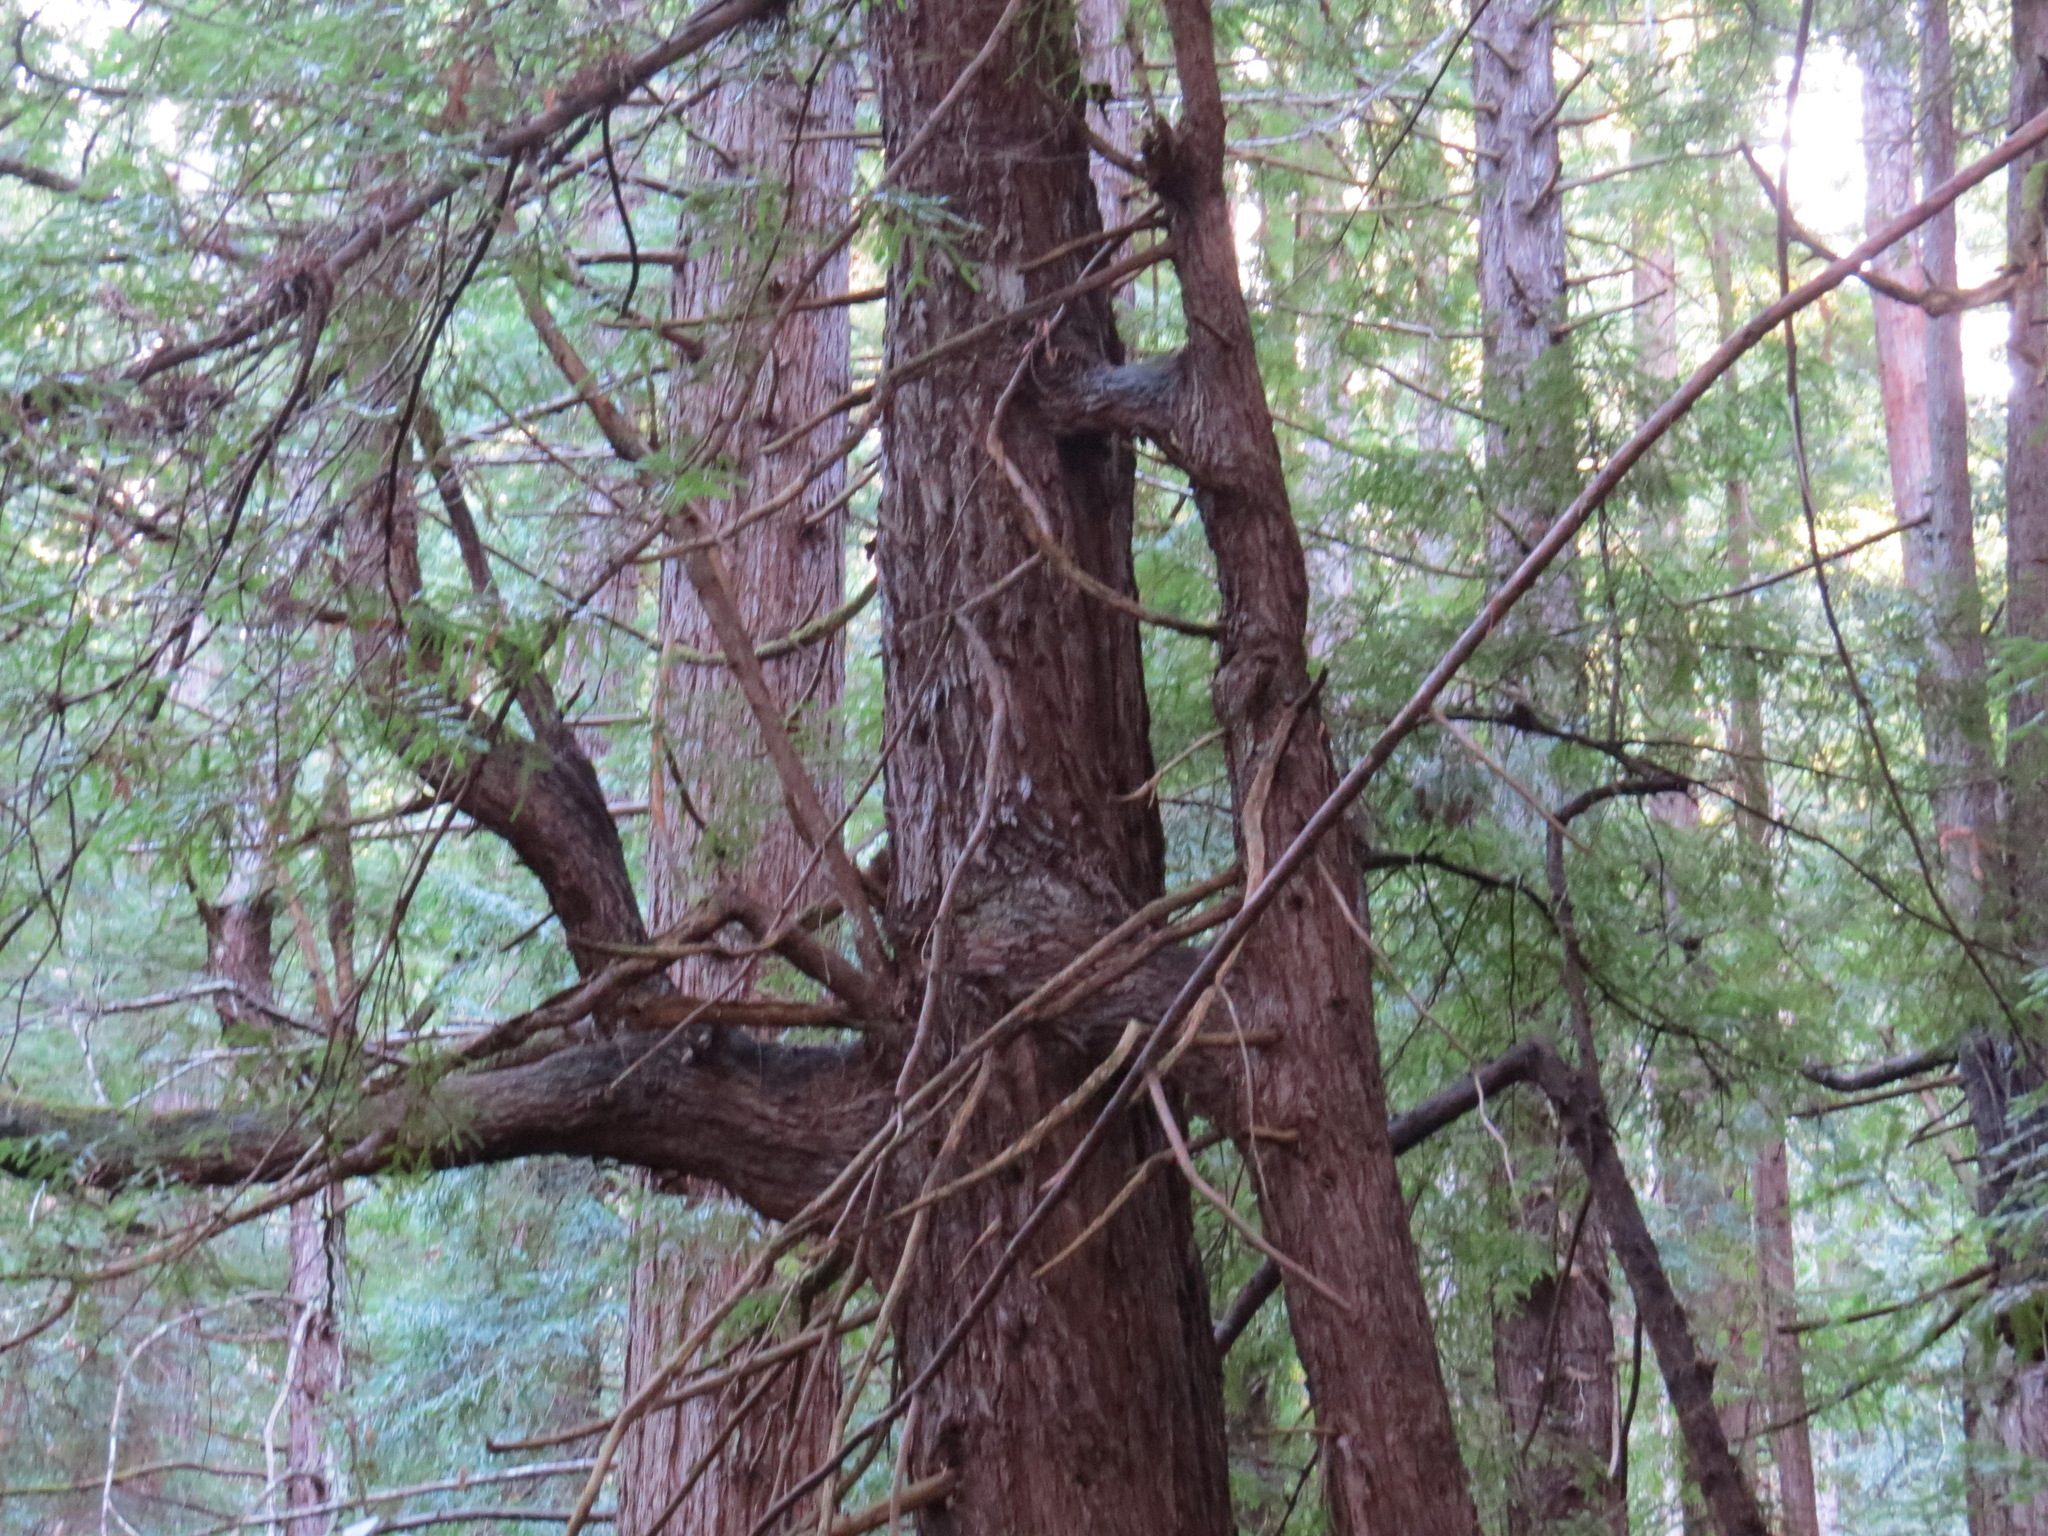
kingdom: Plantae
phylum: Tracheophyta
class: Pinopsida
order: Pinales
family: Cupressaceae
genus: Sequoia
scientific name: Sequoia sempervirens
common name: Coast redwood
